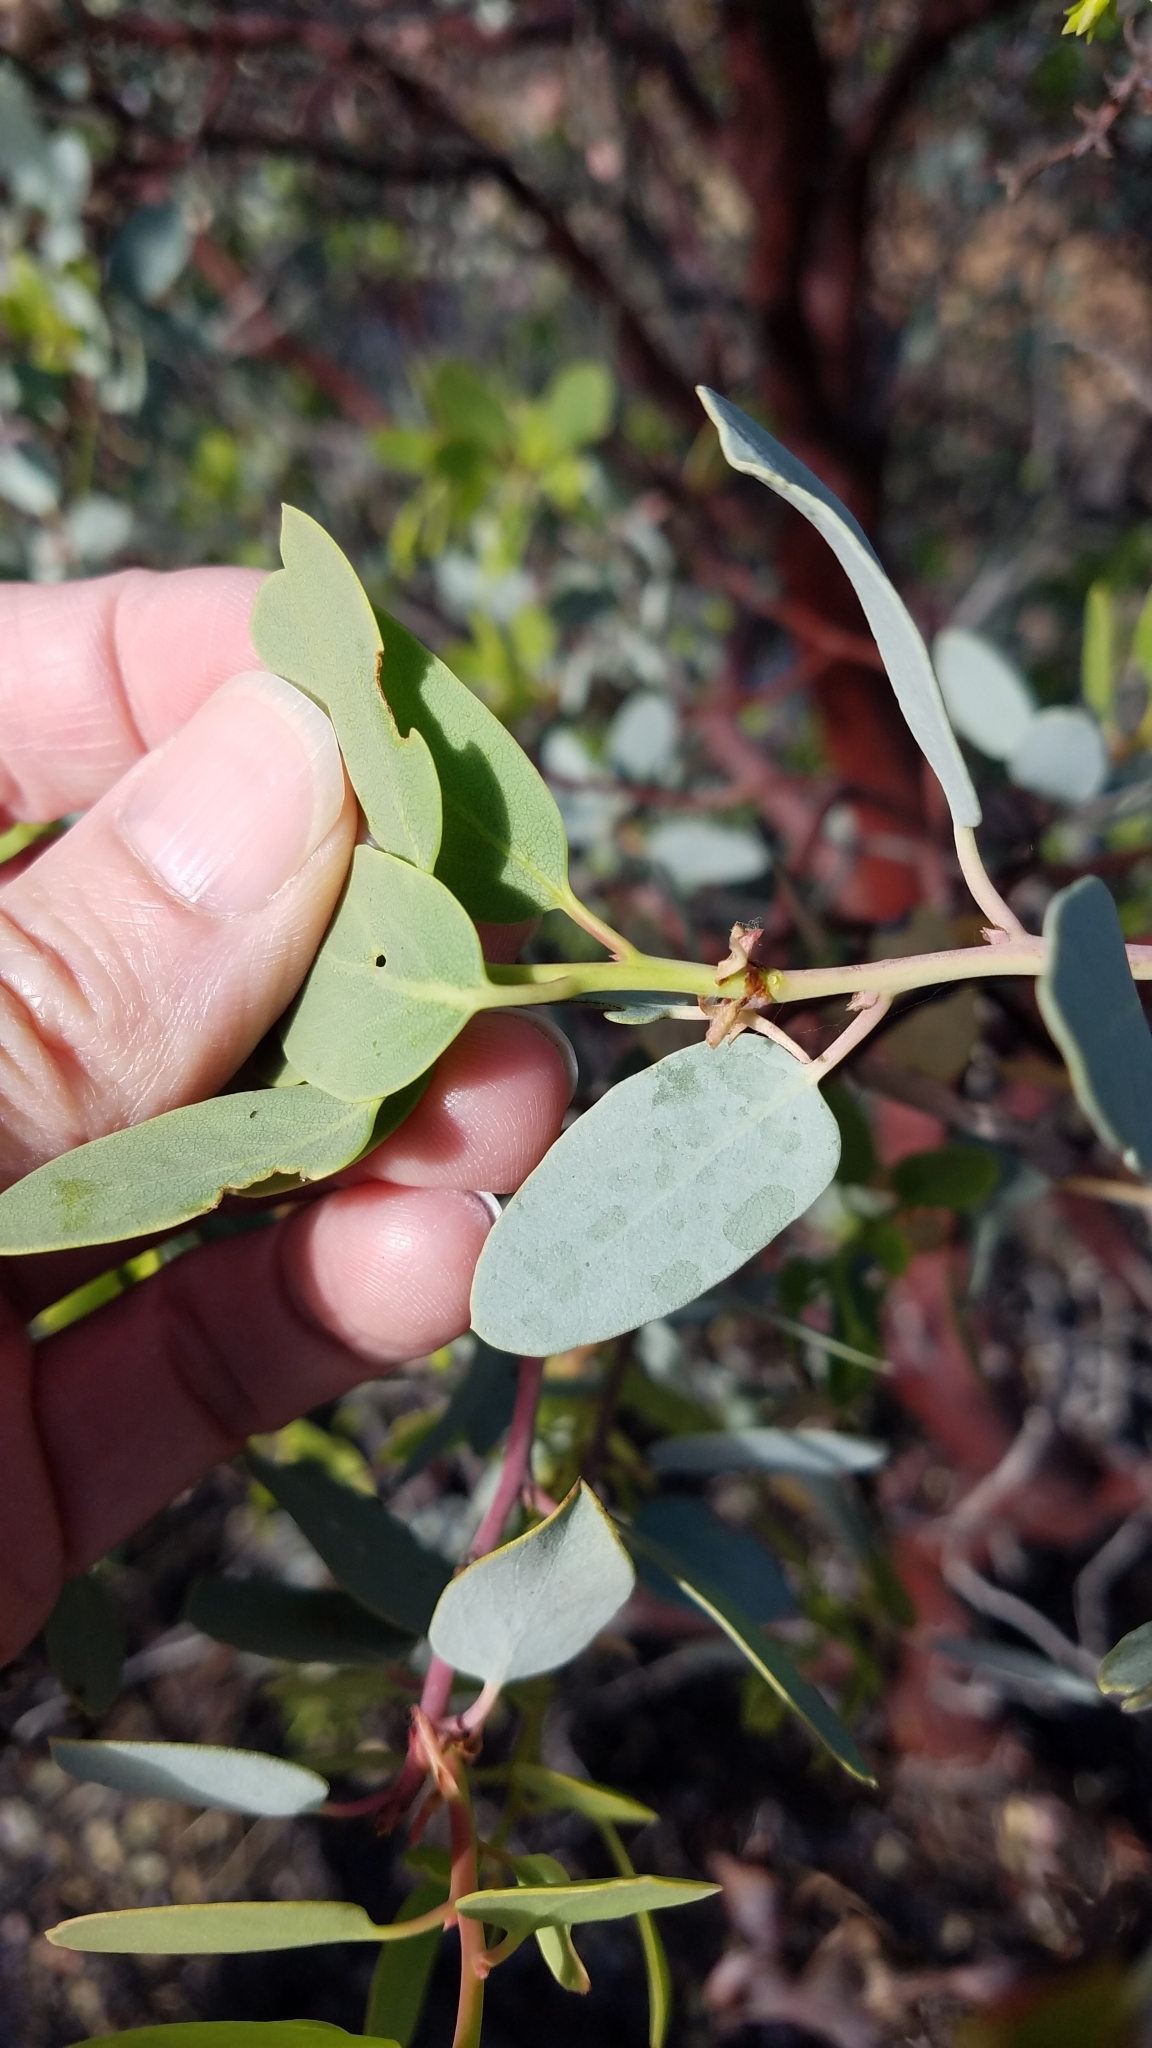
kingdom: Plantae
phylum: Tracheophyta
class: Magnoliopsida
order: Ericales
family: Ericaceae
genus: Arctostaphylos
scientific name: Arctostaphylos glauca
